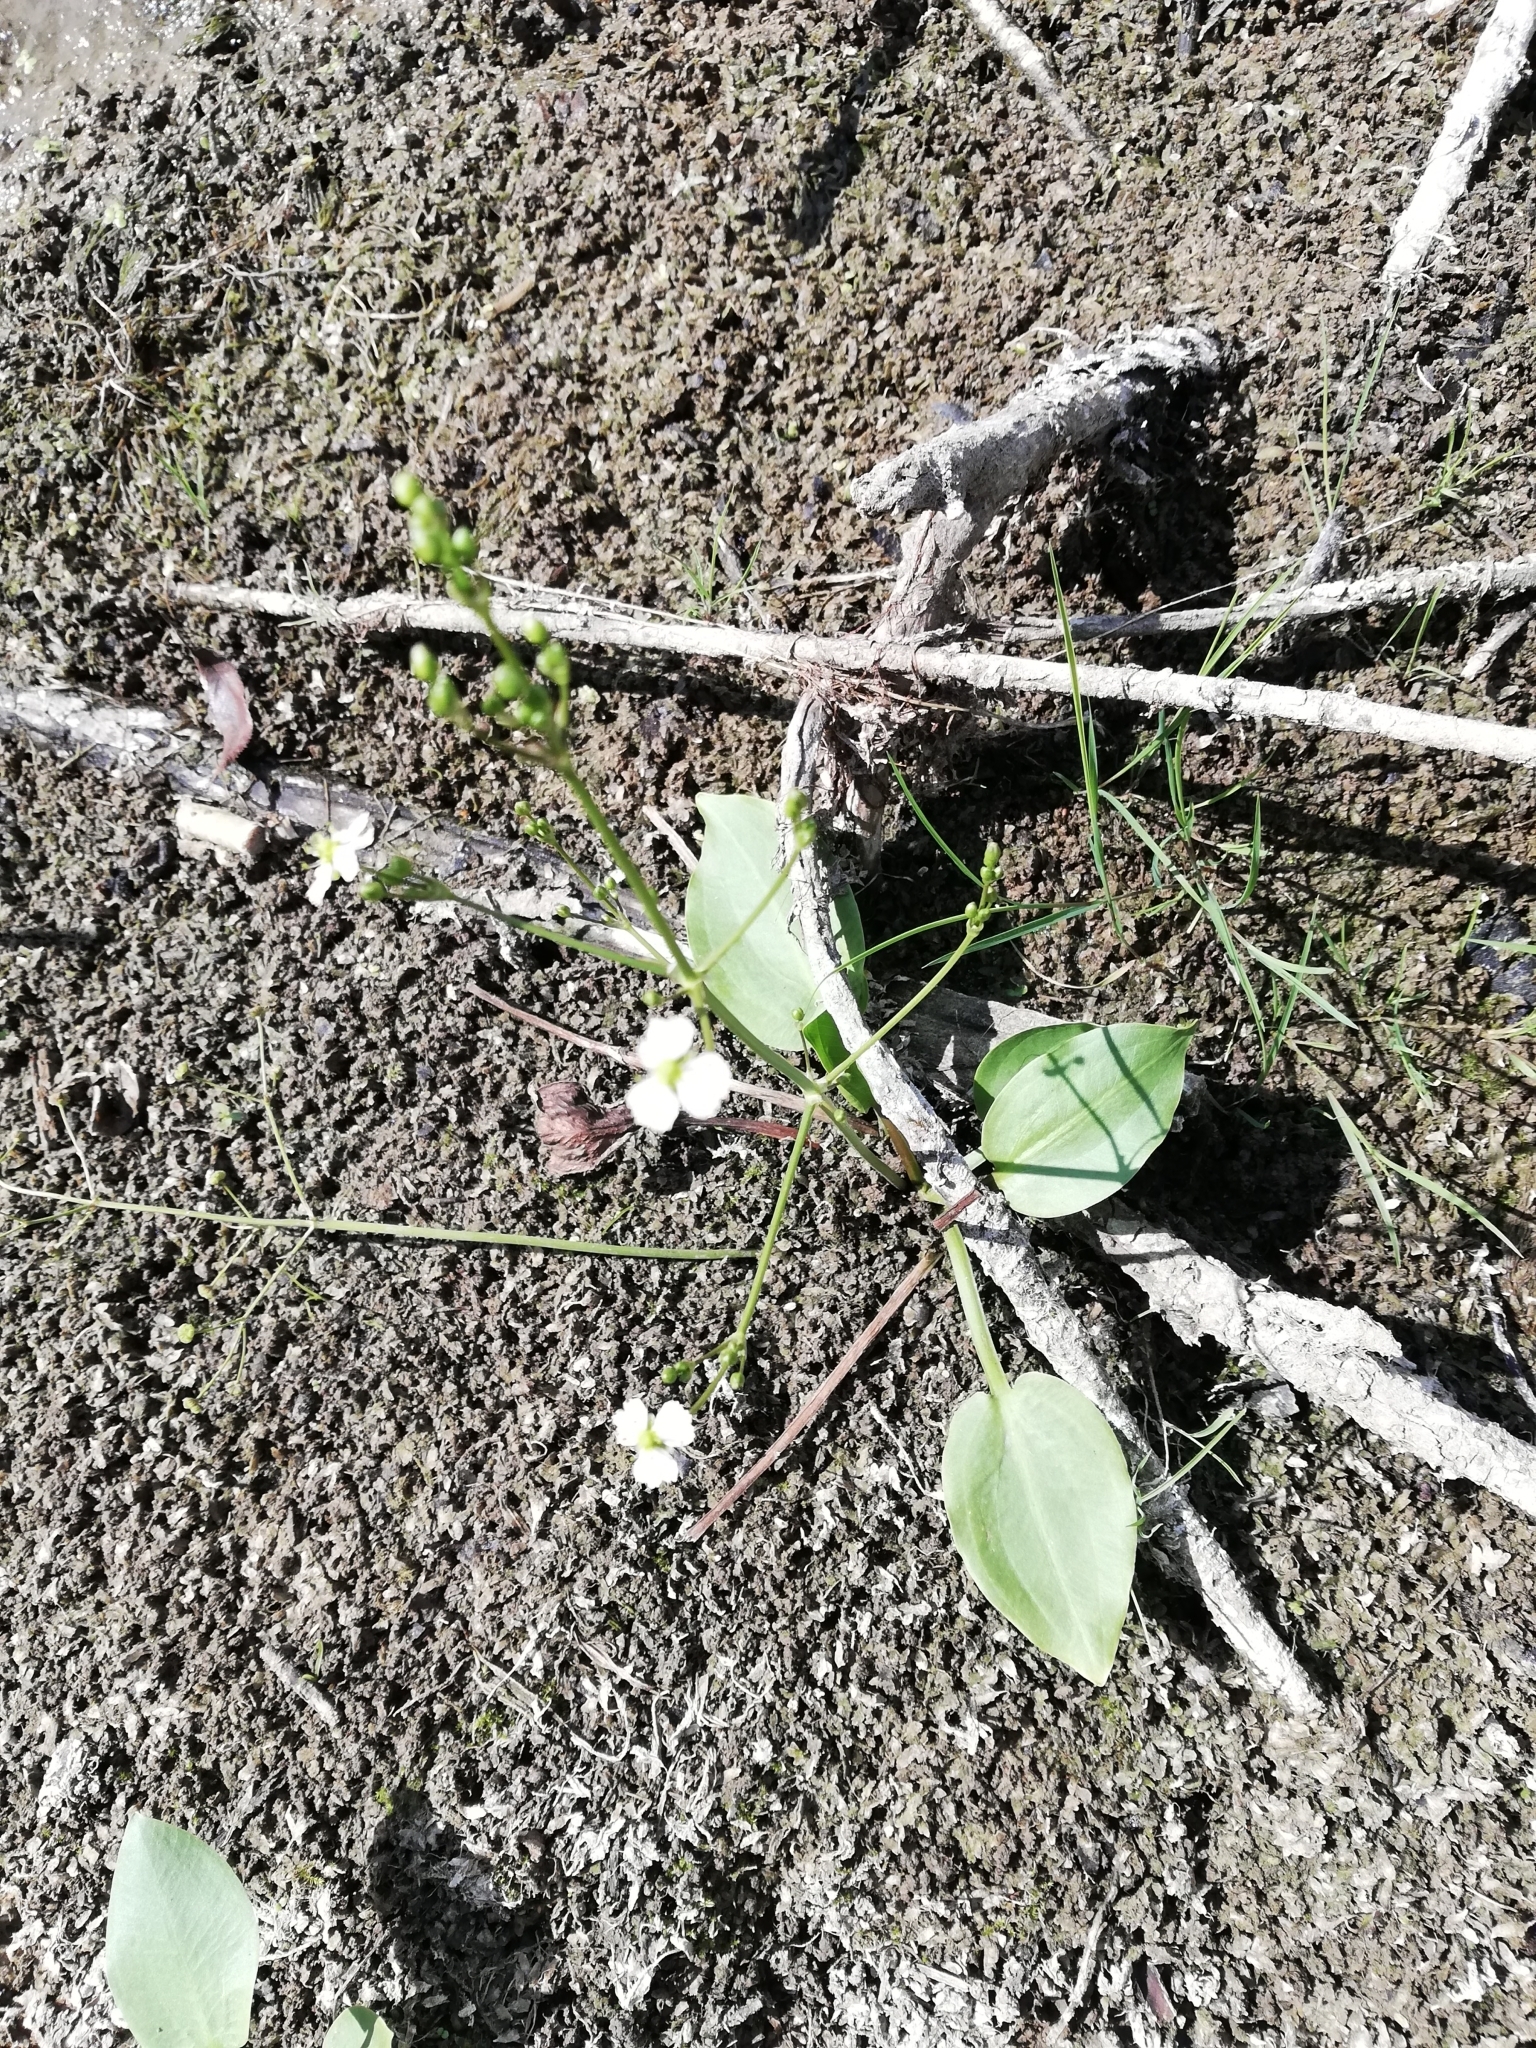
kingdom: Plantae
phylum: Tracheophyta
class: Liliopsida
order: Alismatales
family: Alismataceae
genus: Alisma
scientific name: Alisma plantago-aquatica
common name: Water-plantain
